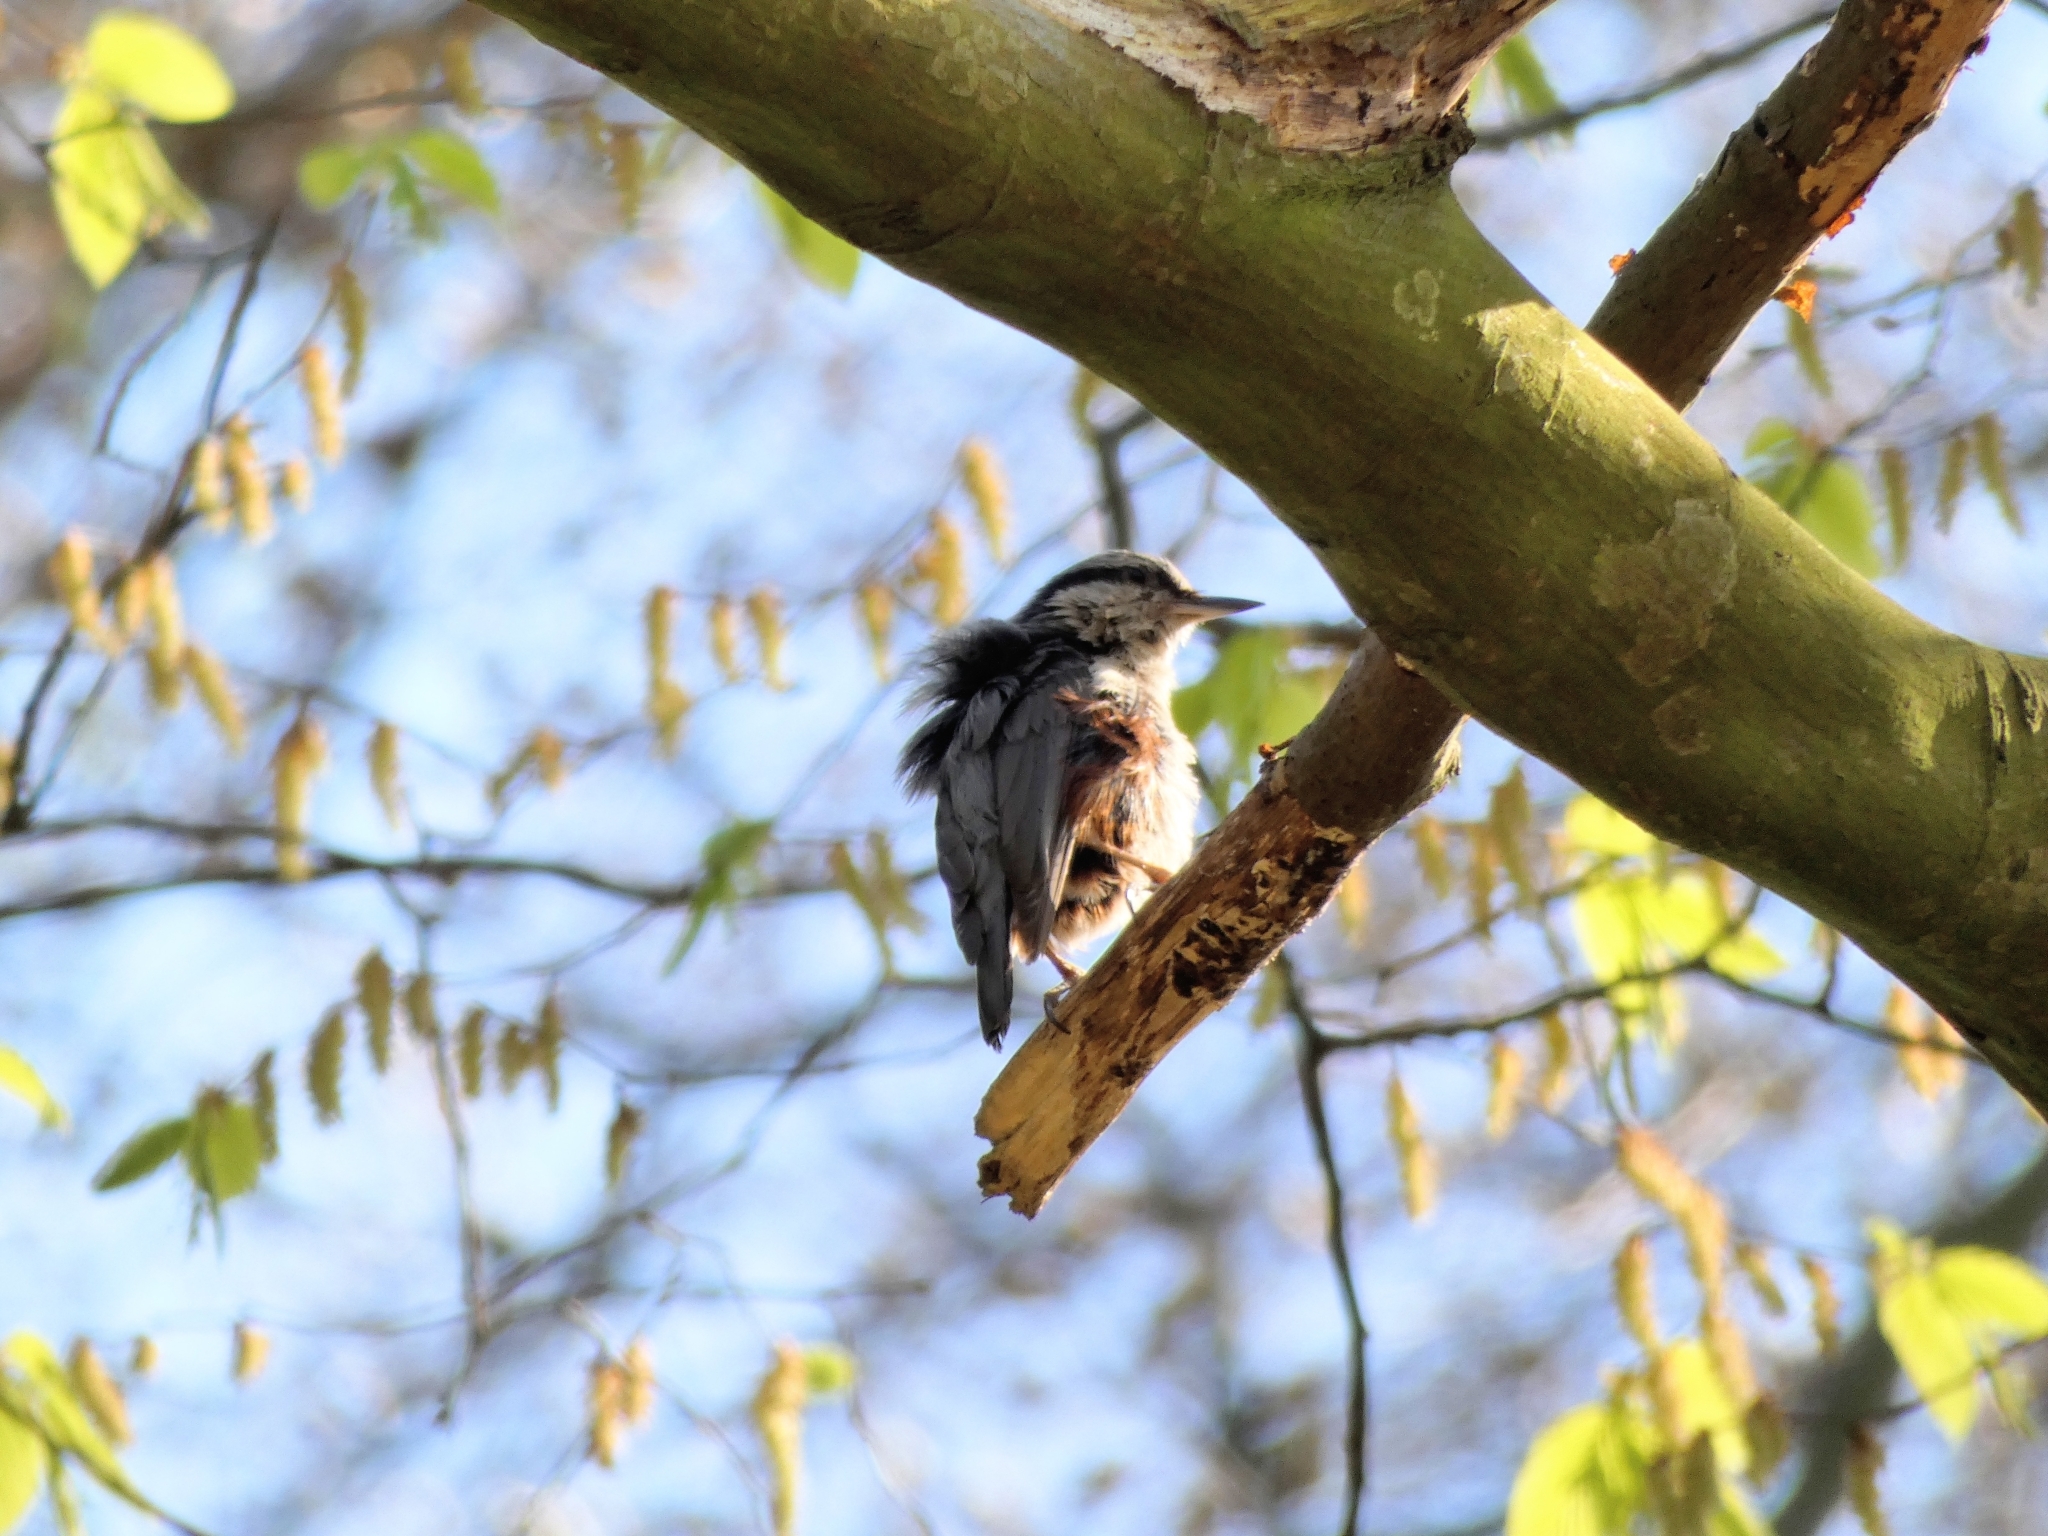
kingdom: Animalia
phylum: Chordata
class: Aves
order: Passeriformes
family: Sittidae
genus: Sitta
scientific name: Sitta europaea
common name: Eurasian nuthatch
